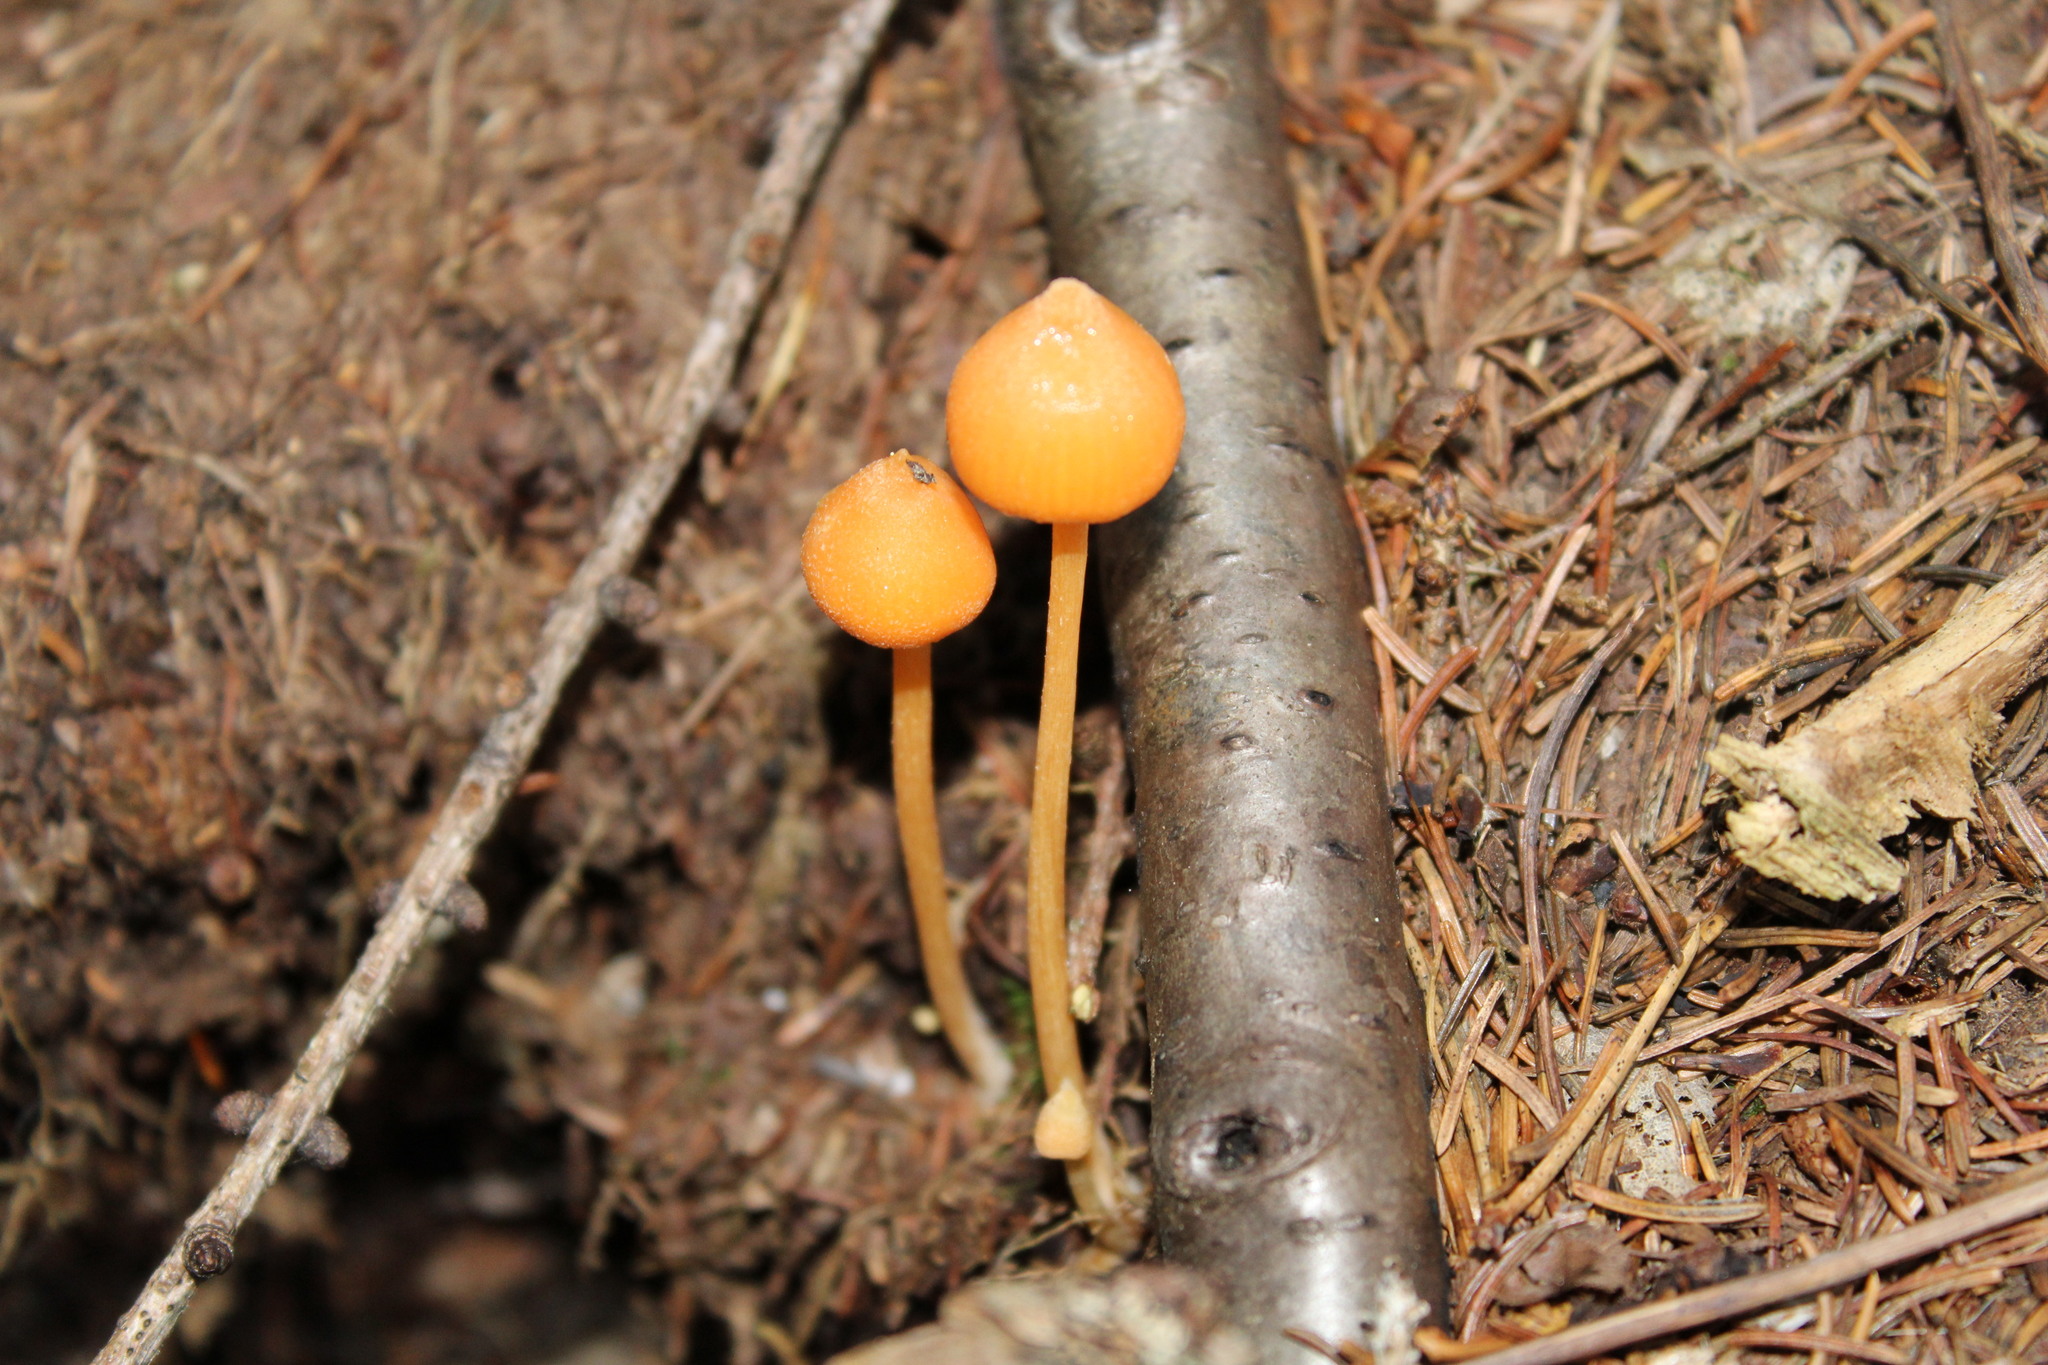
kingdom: Fungi
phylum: Basidiomycota
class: Agaricomycetes
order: Agaricales
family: Entolomataceae
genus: Entoloma
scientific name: Entoloma quadratum
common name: Salmon pinkgill
